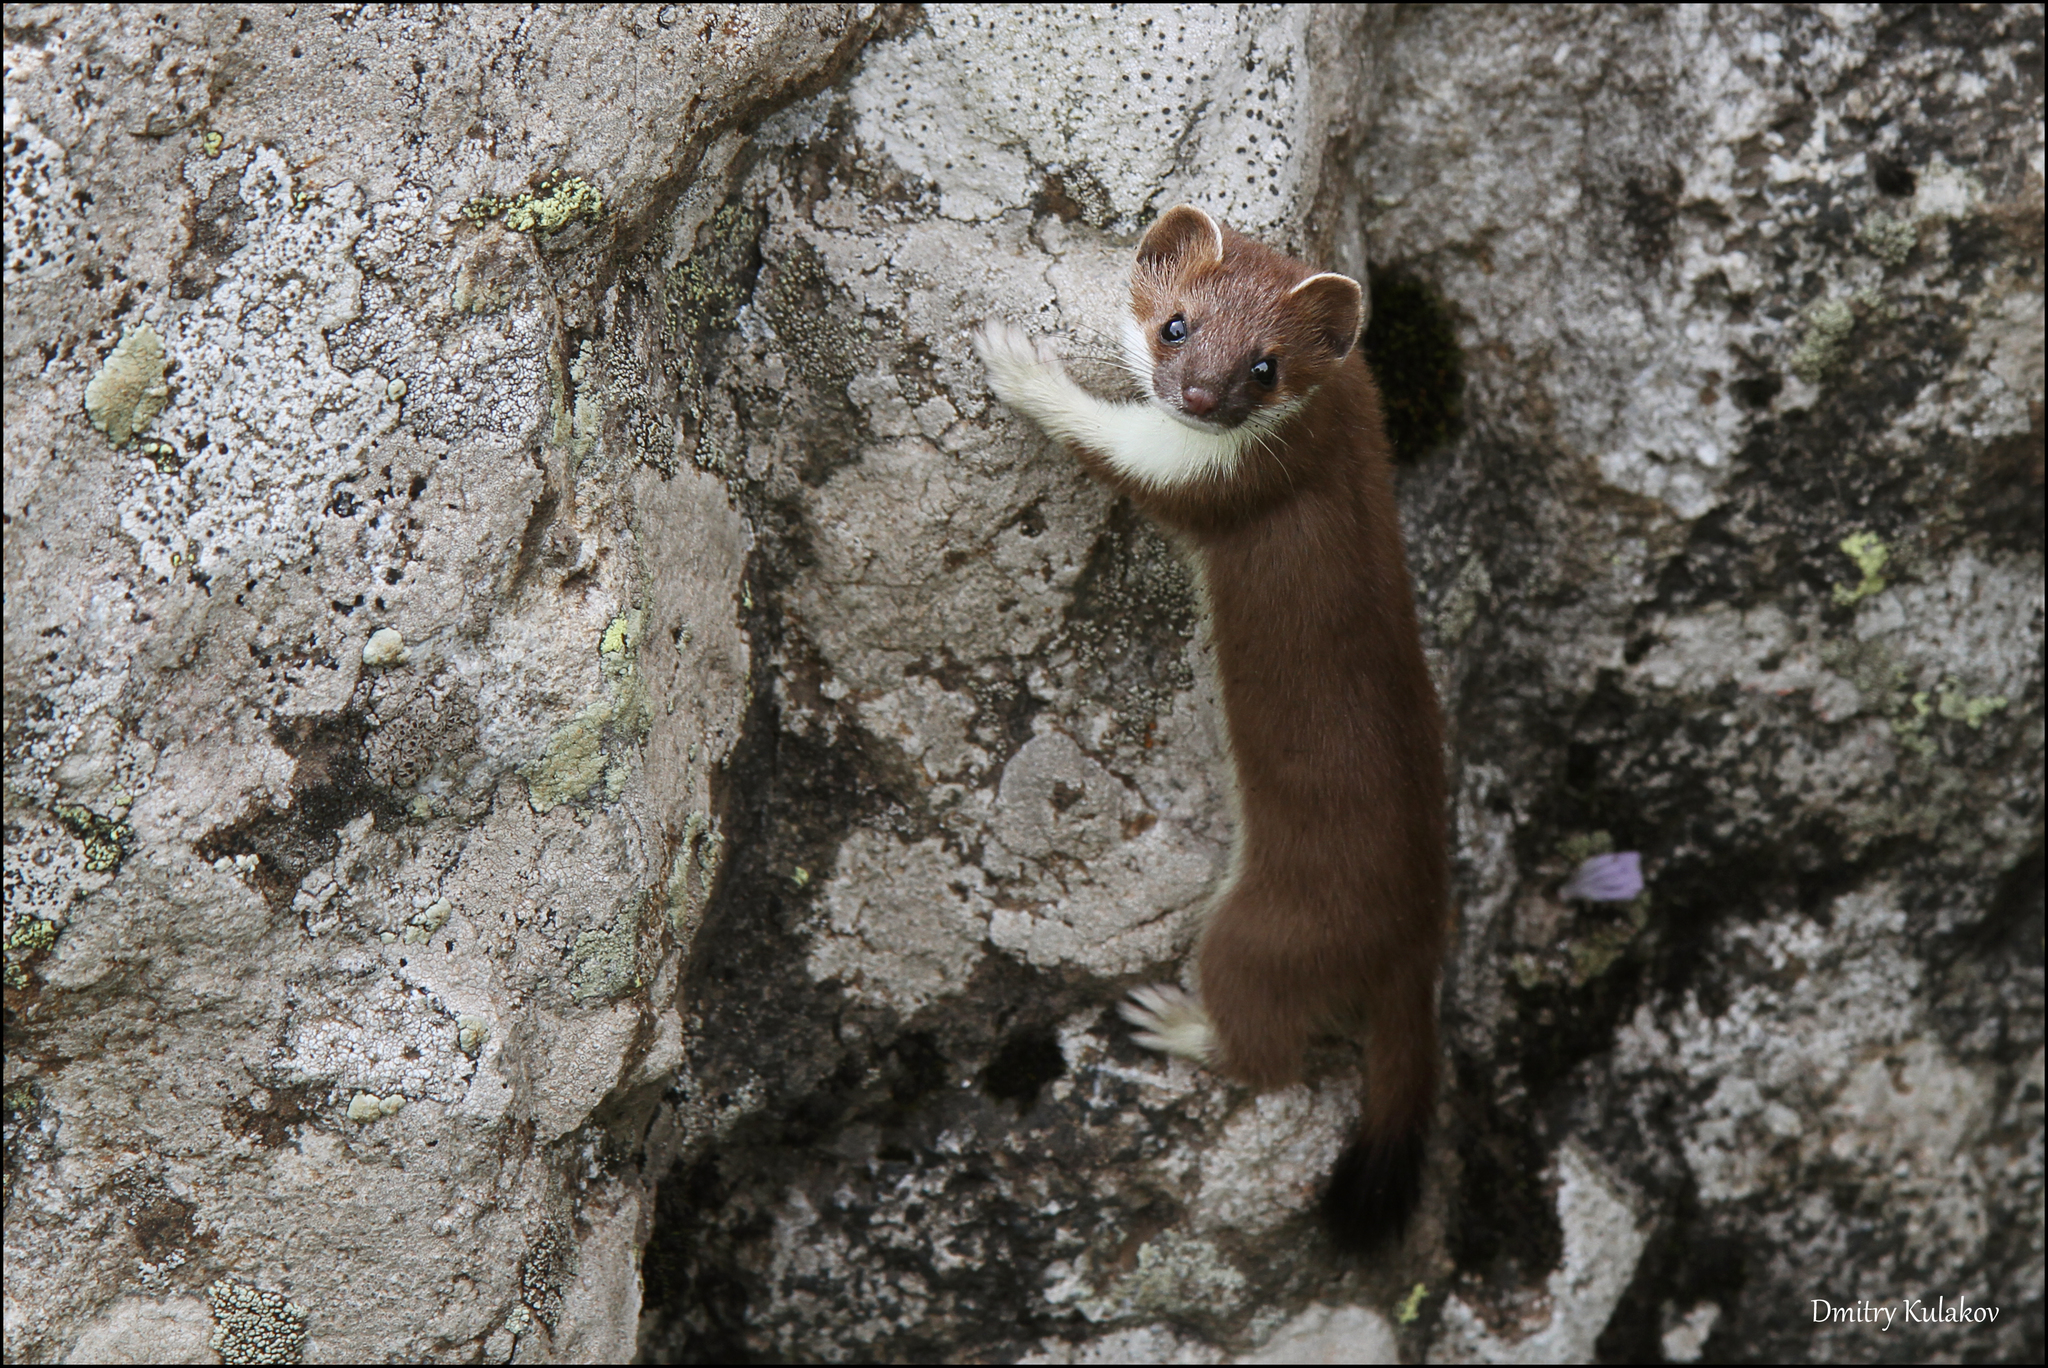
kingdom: Animalia
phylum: Chordata
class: Mammalia
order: Carnivora
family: Mustelidae
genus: Mustela
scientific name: Mustela erminea
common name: Stoat
